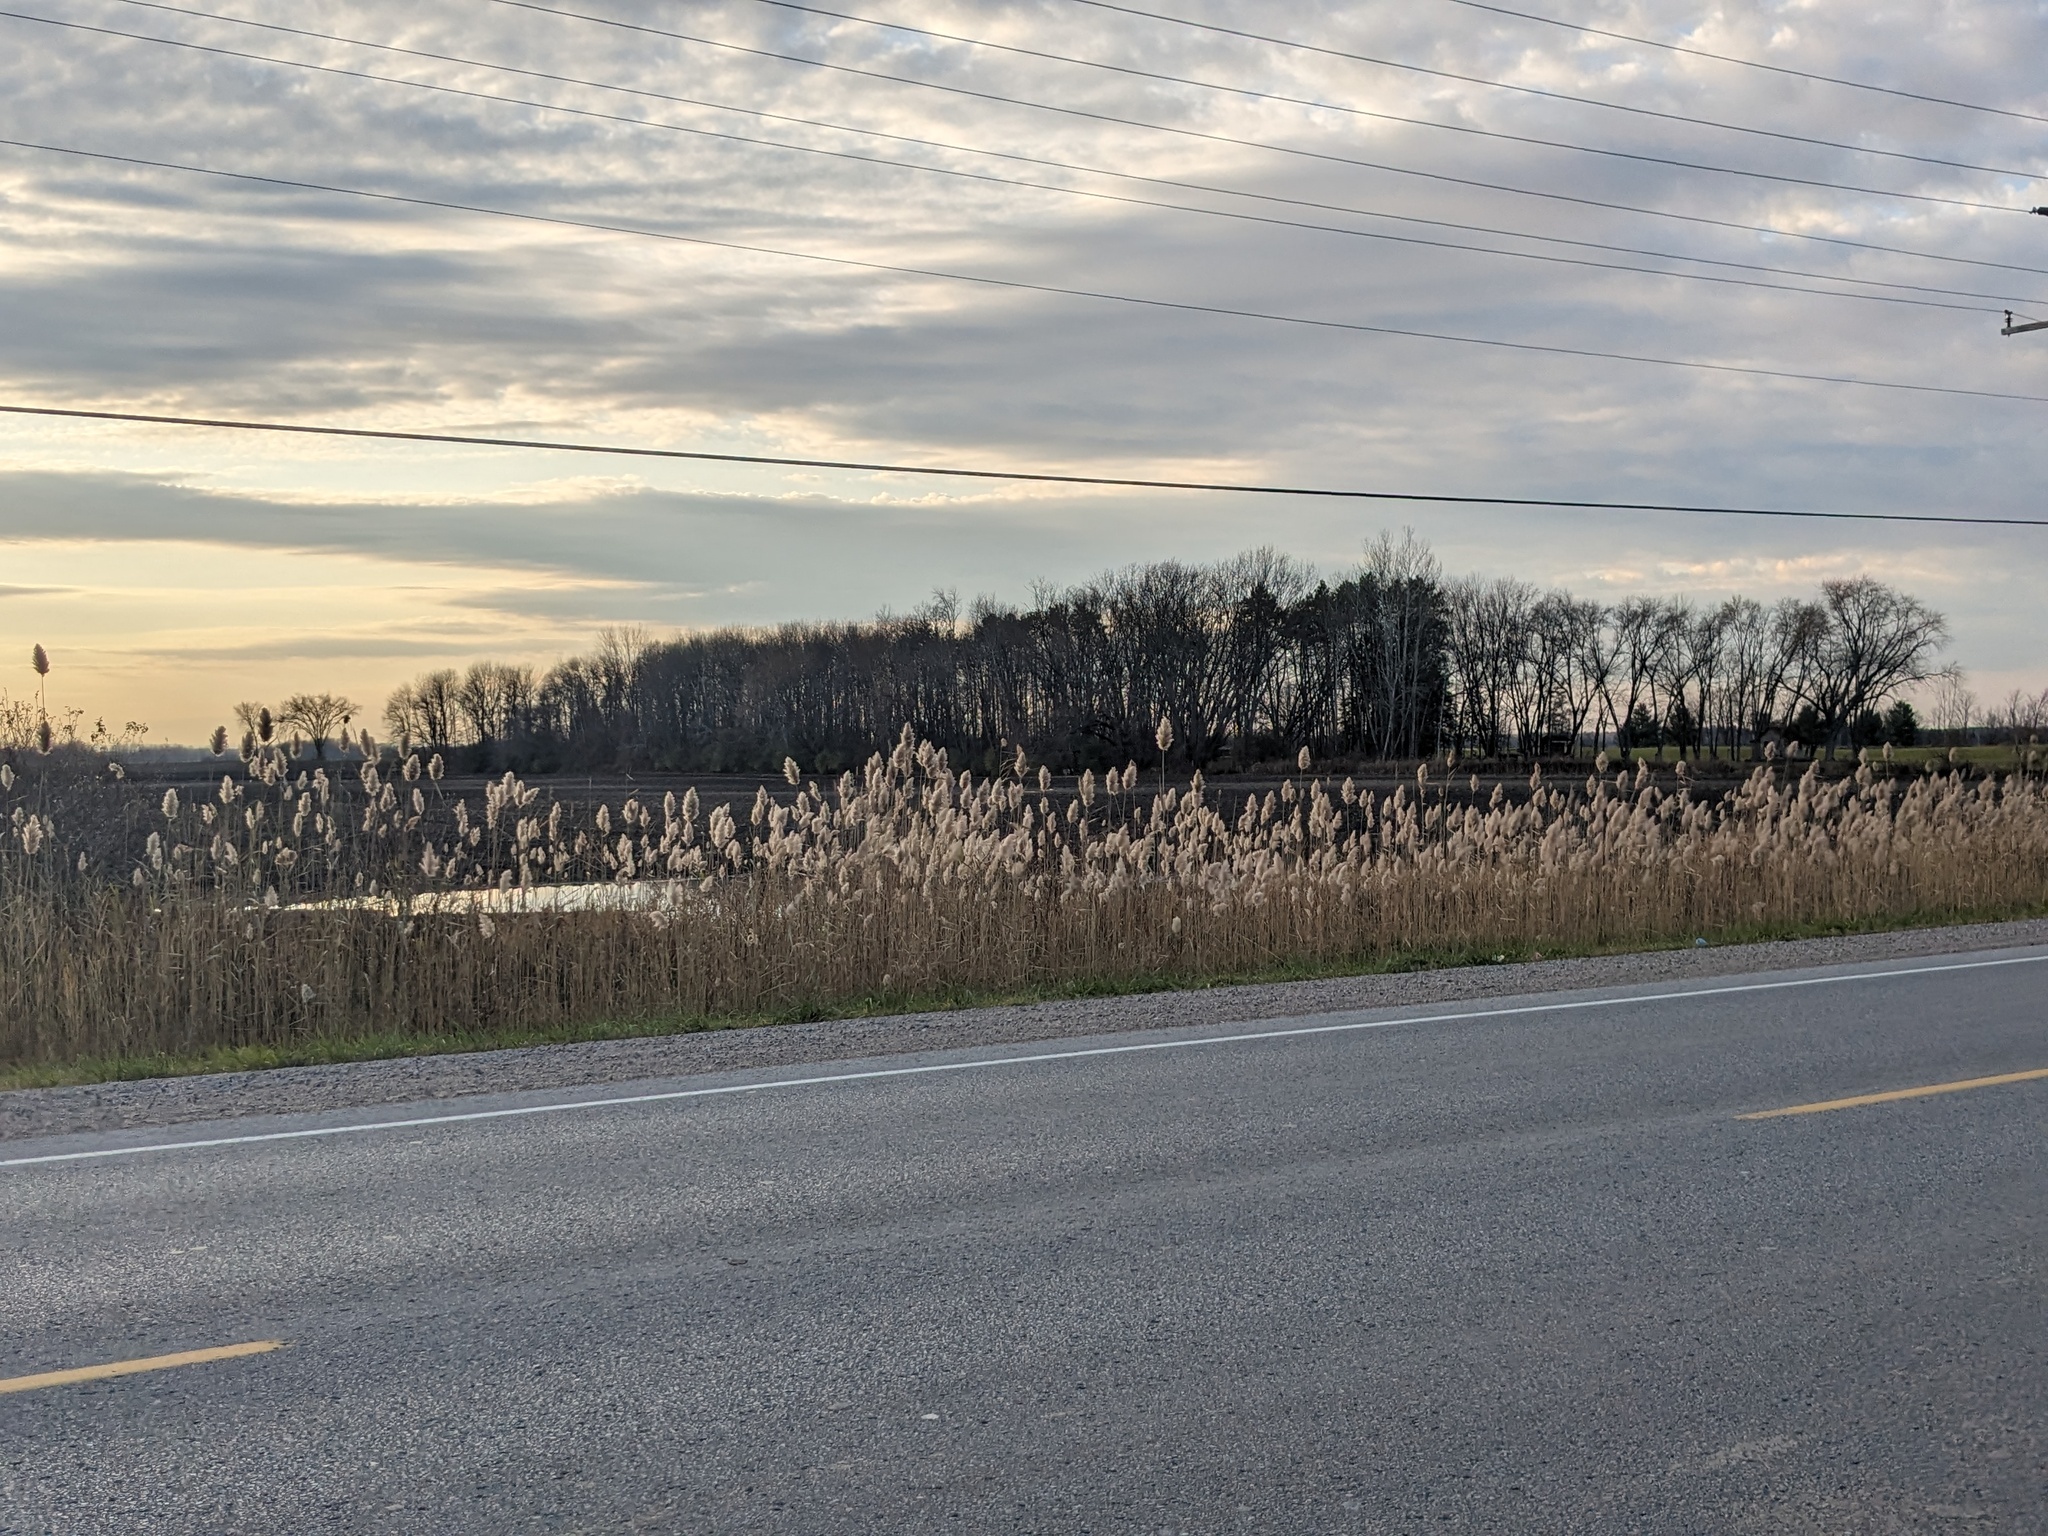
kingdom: Plantae
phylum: Tracheophyta
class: Liliopsida
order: Poales
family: Poaceae
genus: Phragmites
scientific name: Phragmites australis
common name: Common reed
